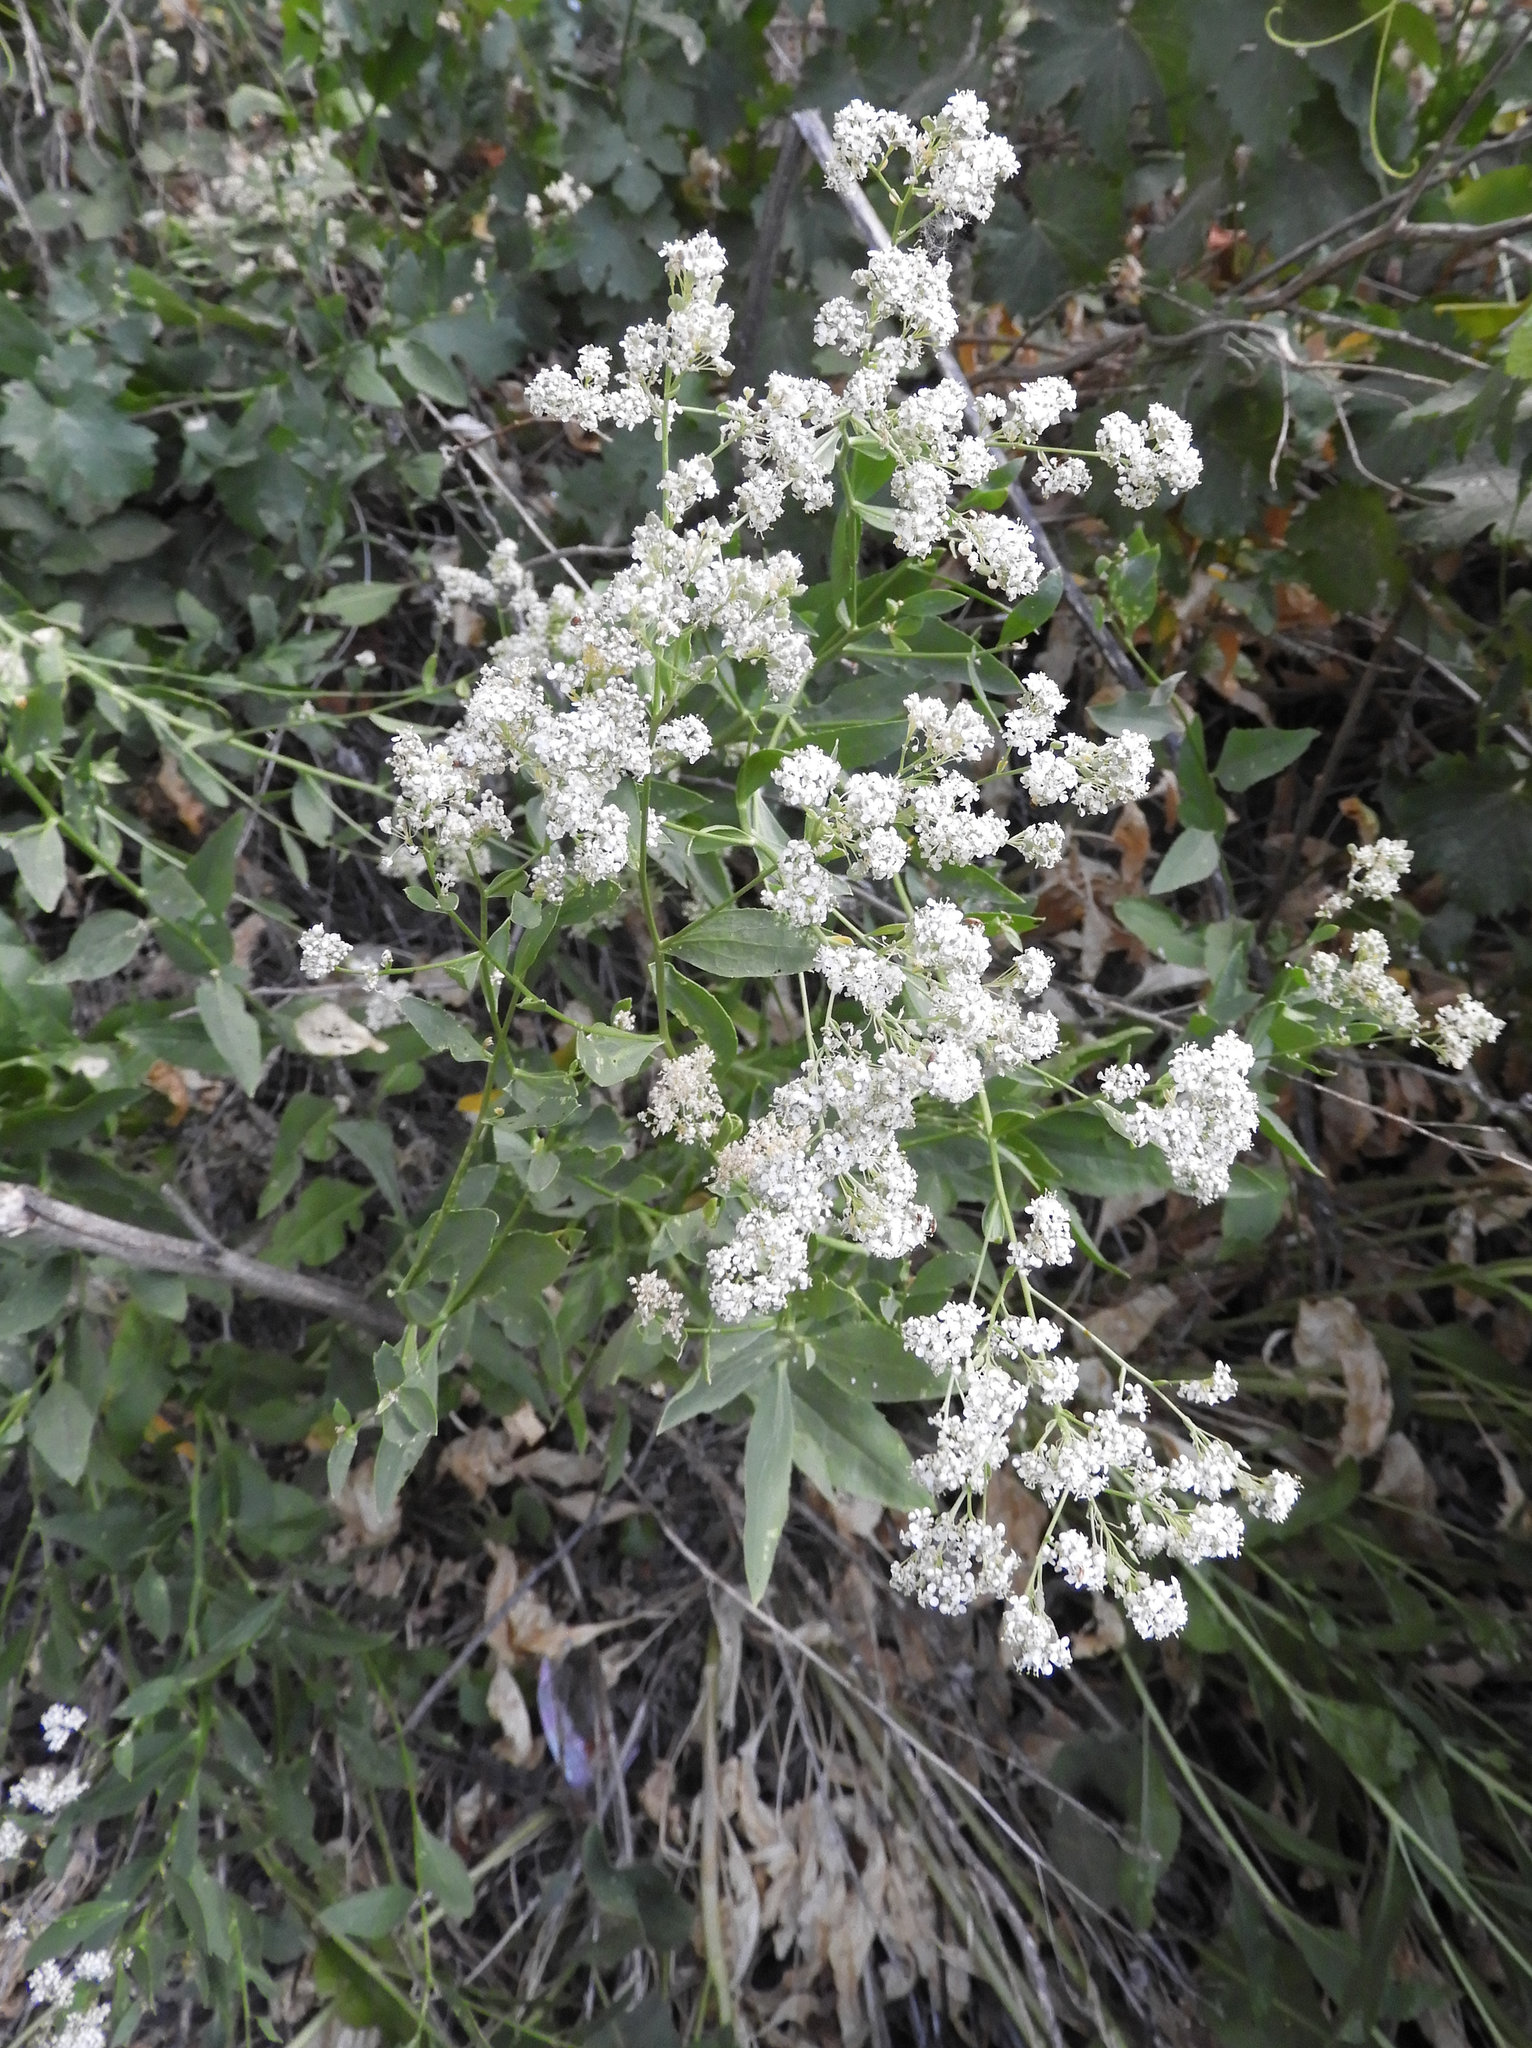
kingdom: Plantae
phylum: Tracheophyta
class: Magnoliopsida
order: Brassicales
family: Brassicaceae
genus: Lepidium
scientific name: Lepidium latifolium
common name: Dittander
